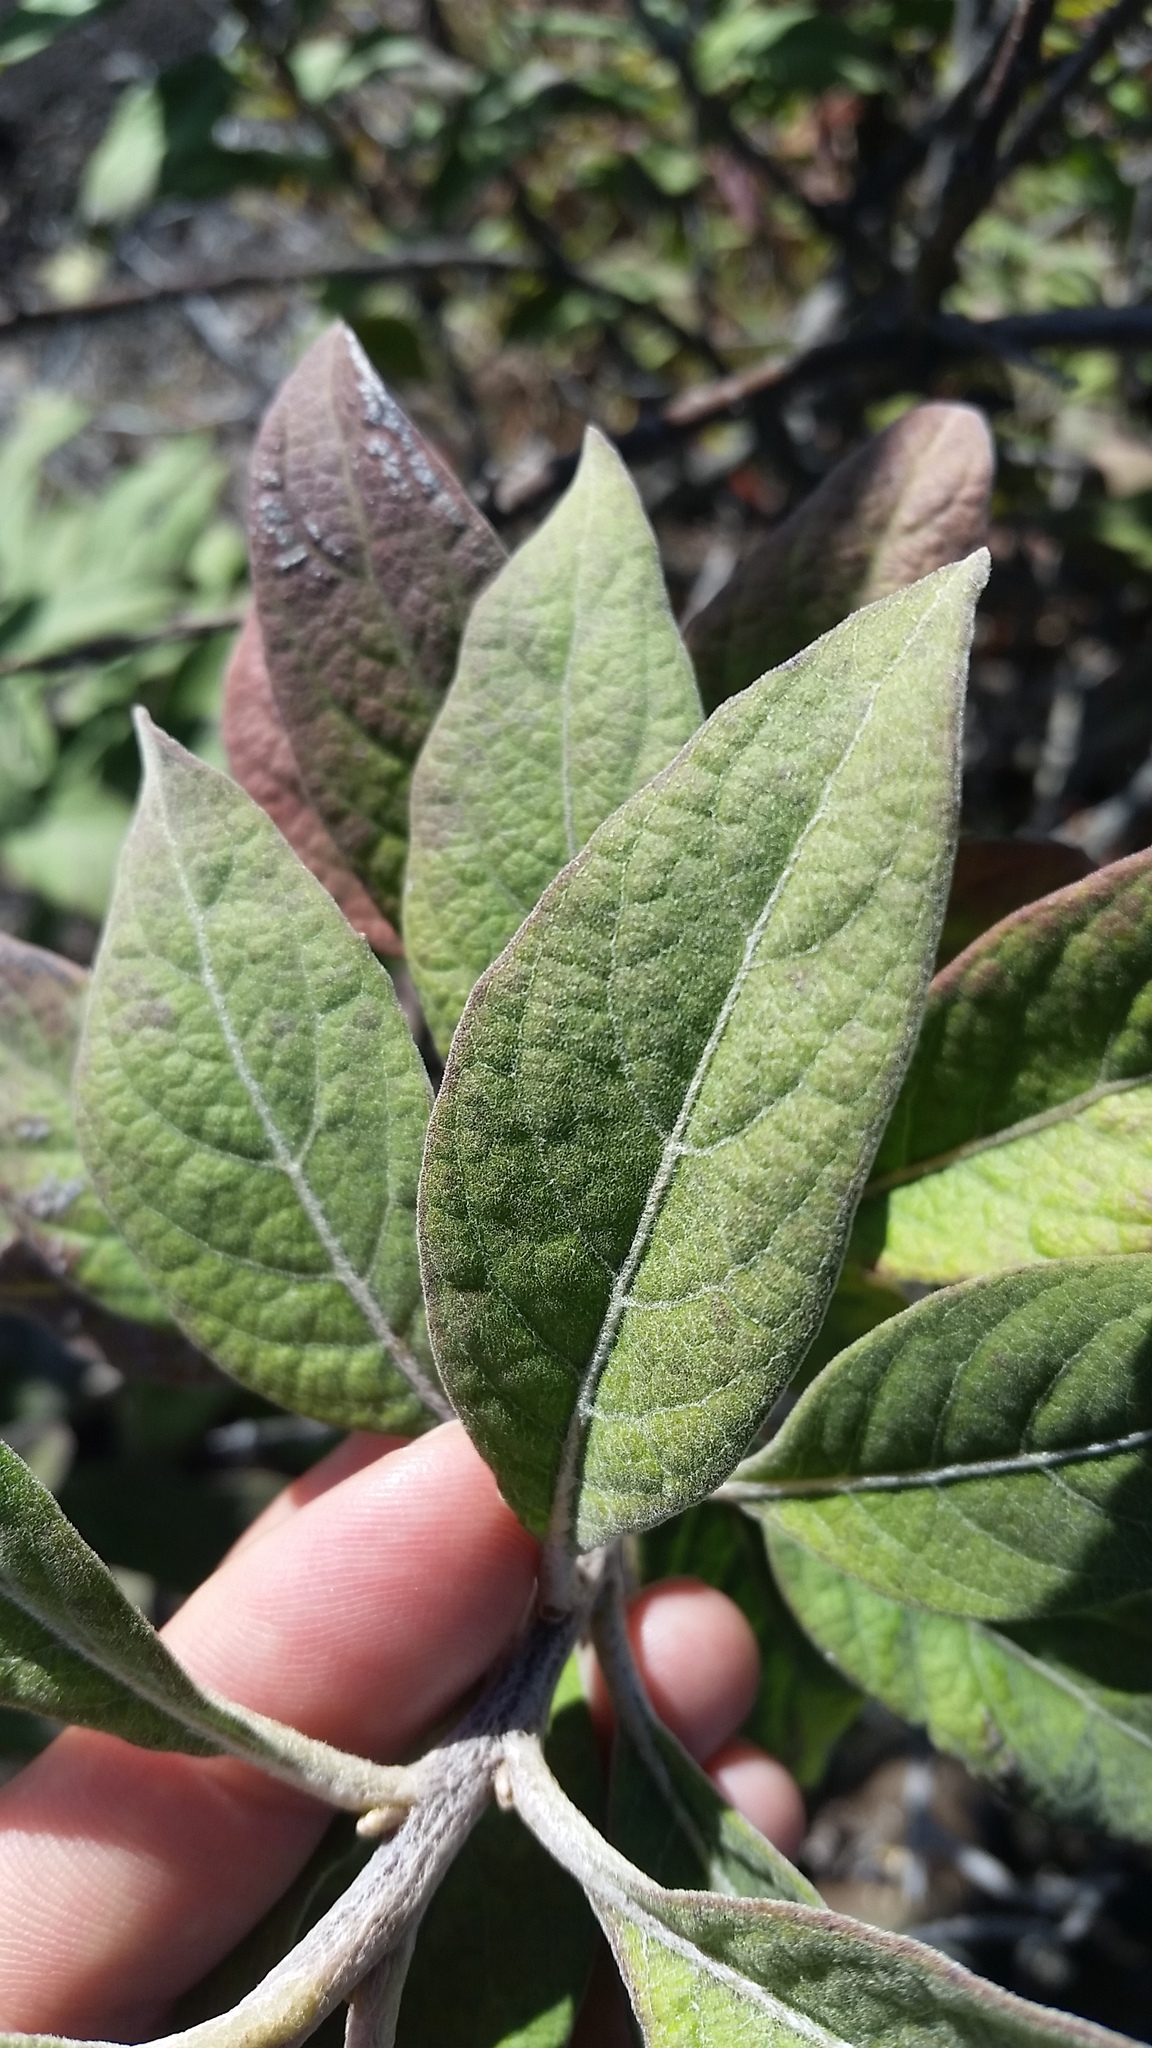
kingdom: Plantae
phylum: Tracheophyta
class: Magnoliopsida
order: Asterales
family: Asteraceae
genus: Pluchea
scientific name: Pluchea carolinensis
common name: Marsh fleabane
